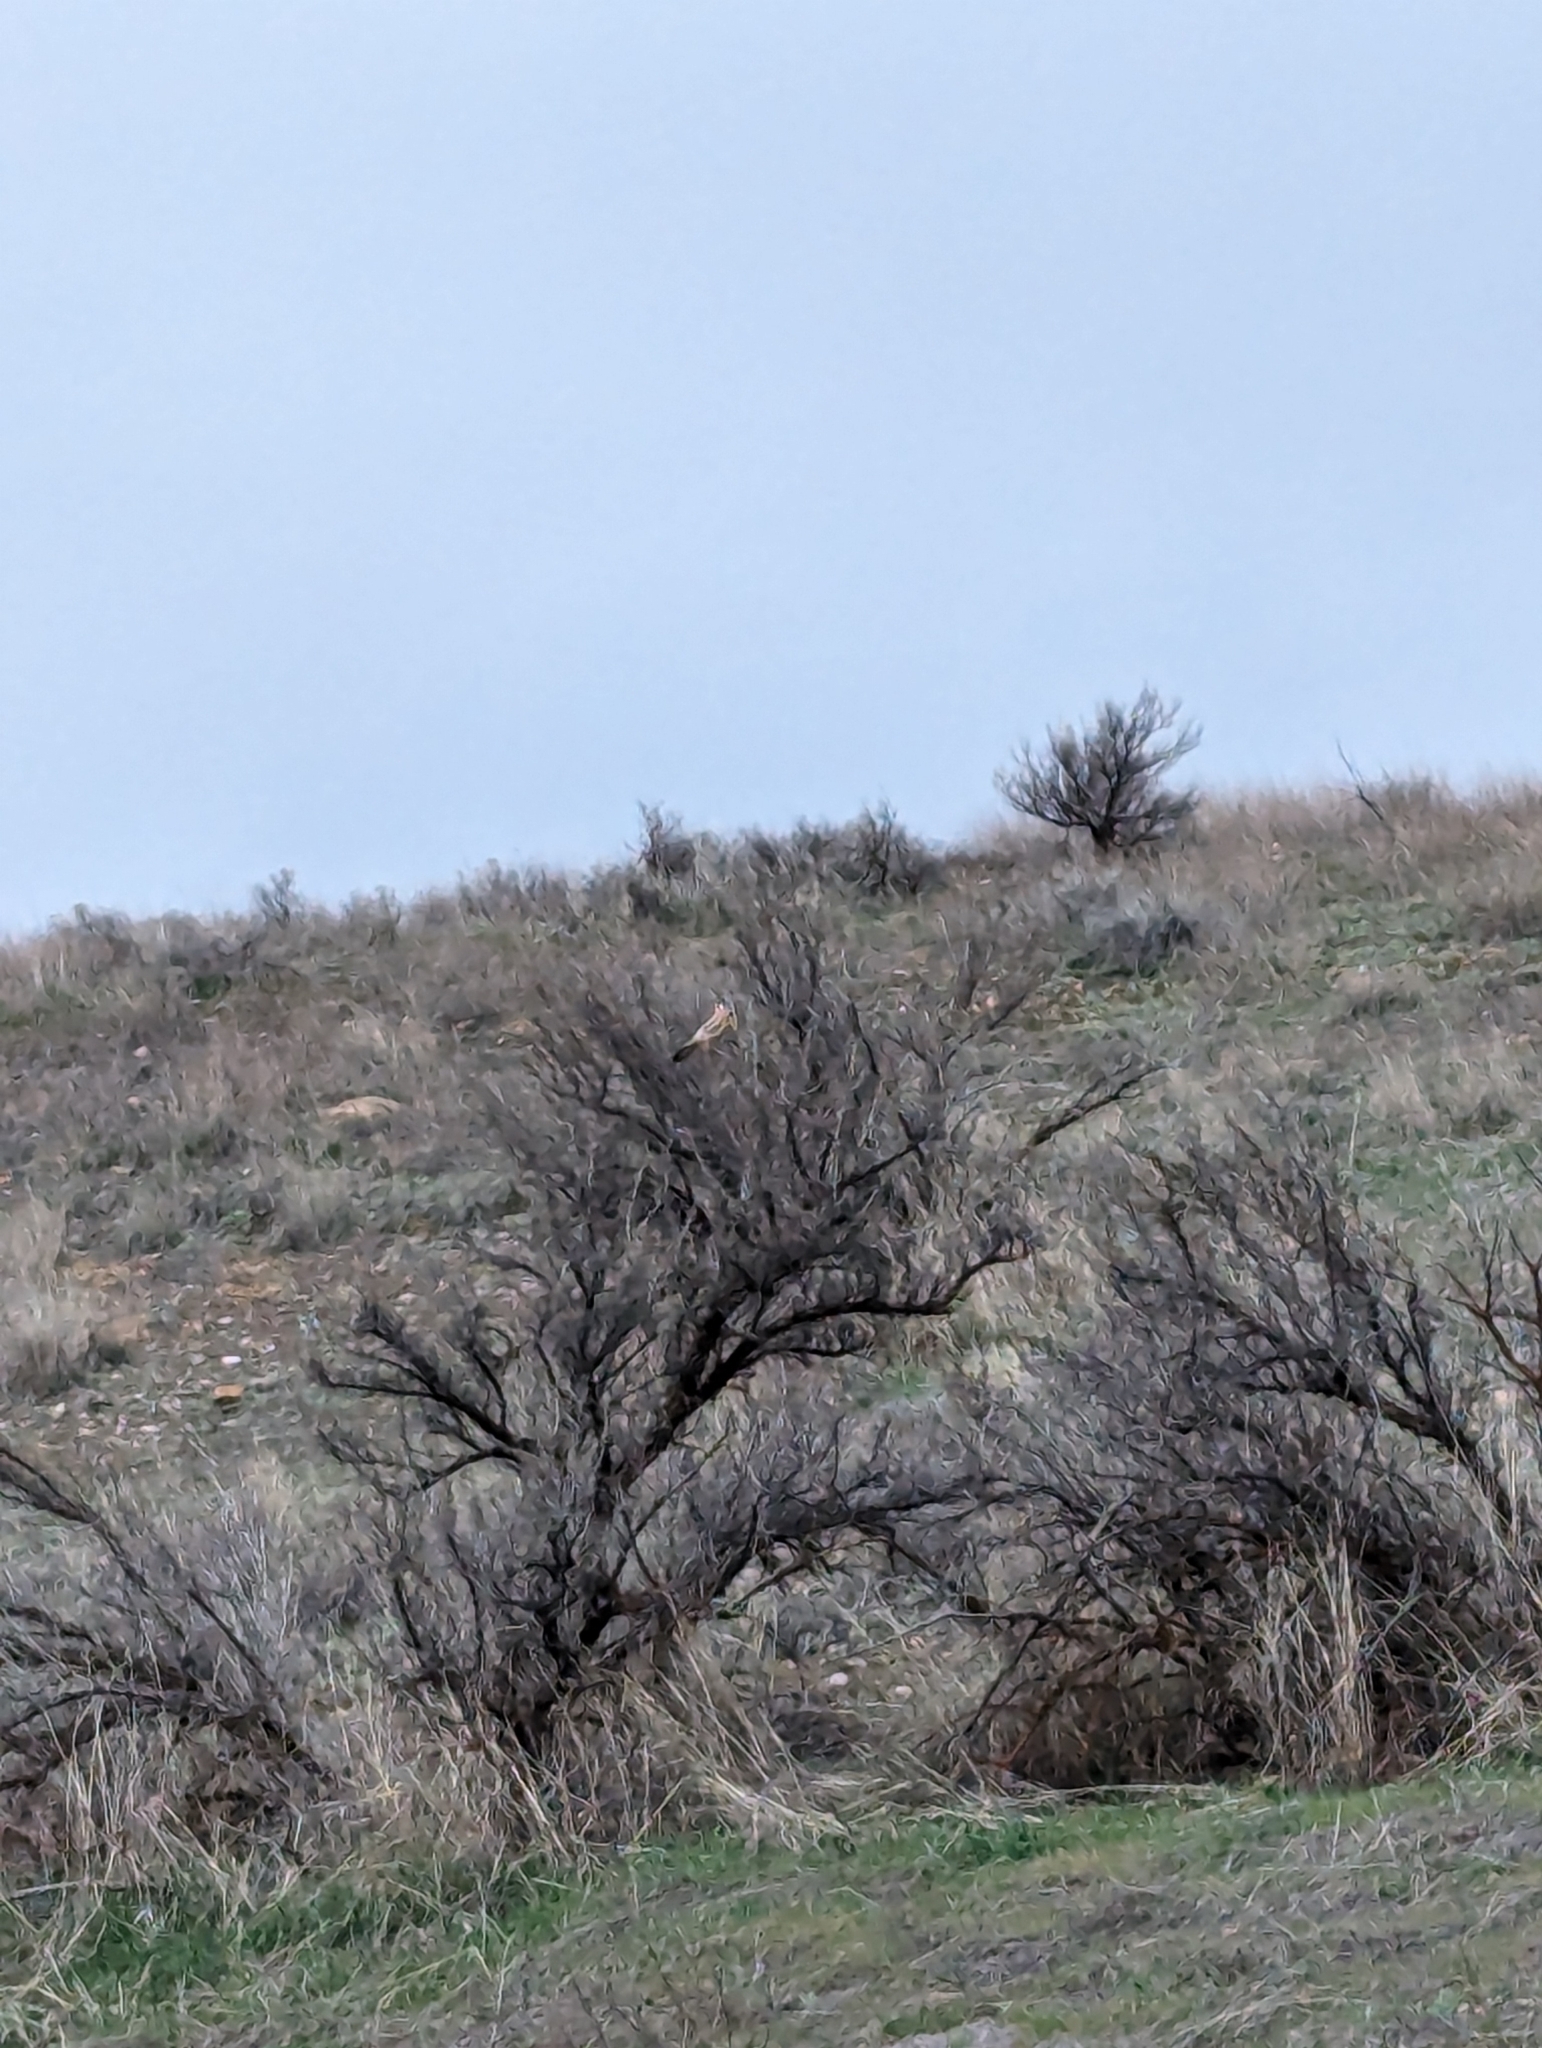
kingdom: Animalia
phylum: Chordata
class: Aves
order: Falconiformes
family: Falconidae
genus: Falco
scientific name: Falco sparverius
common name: American kestrel
